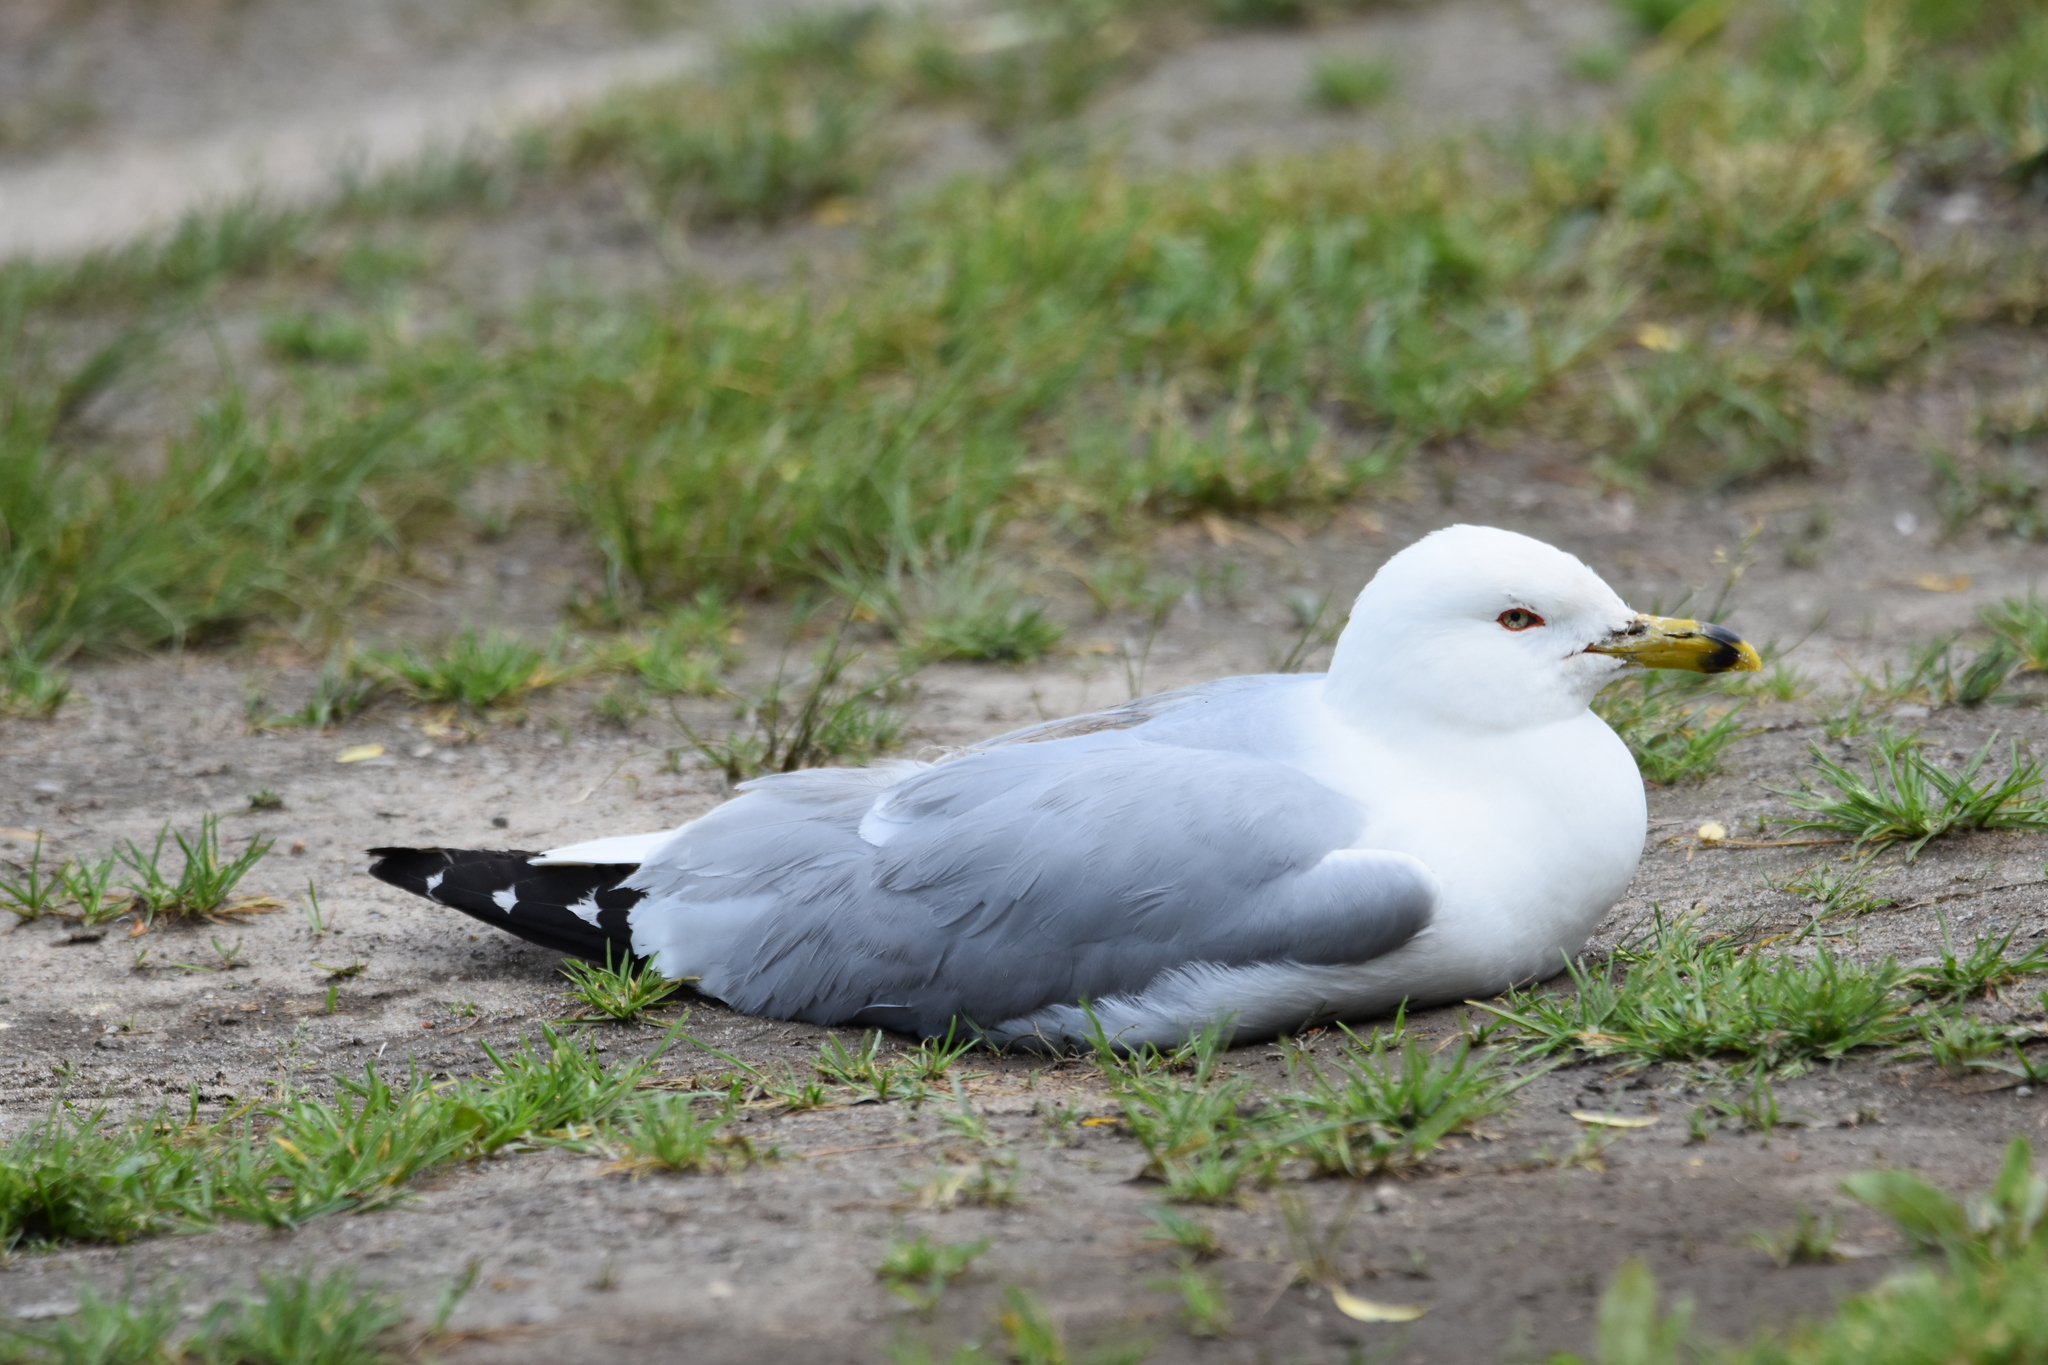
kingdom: Animalia
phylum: Chordata
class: Aves
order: Charadriiformes
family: Laridae
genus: Larus
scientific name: Larus delawarensis
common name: Ring-billed gull
